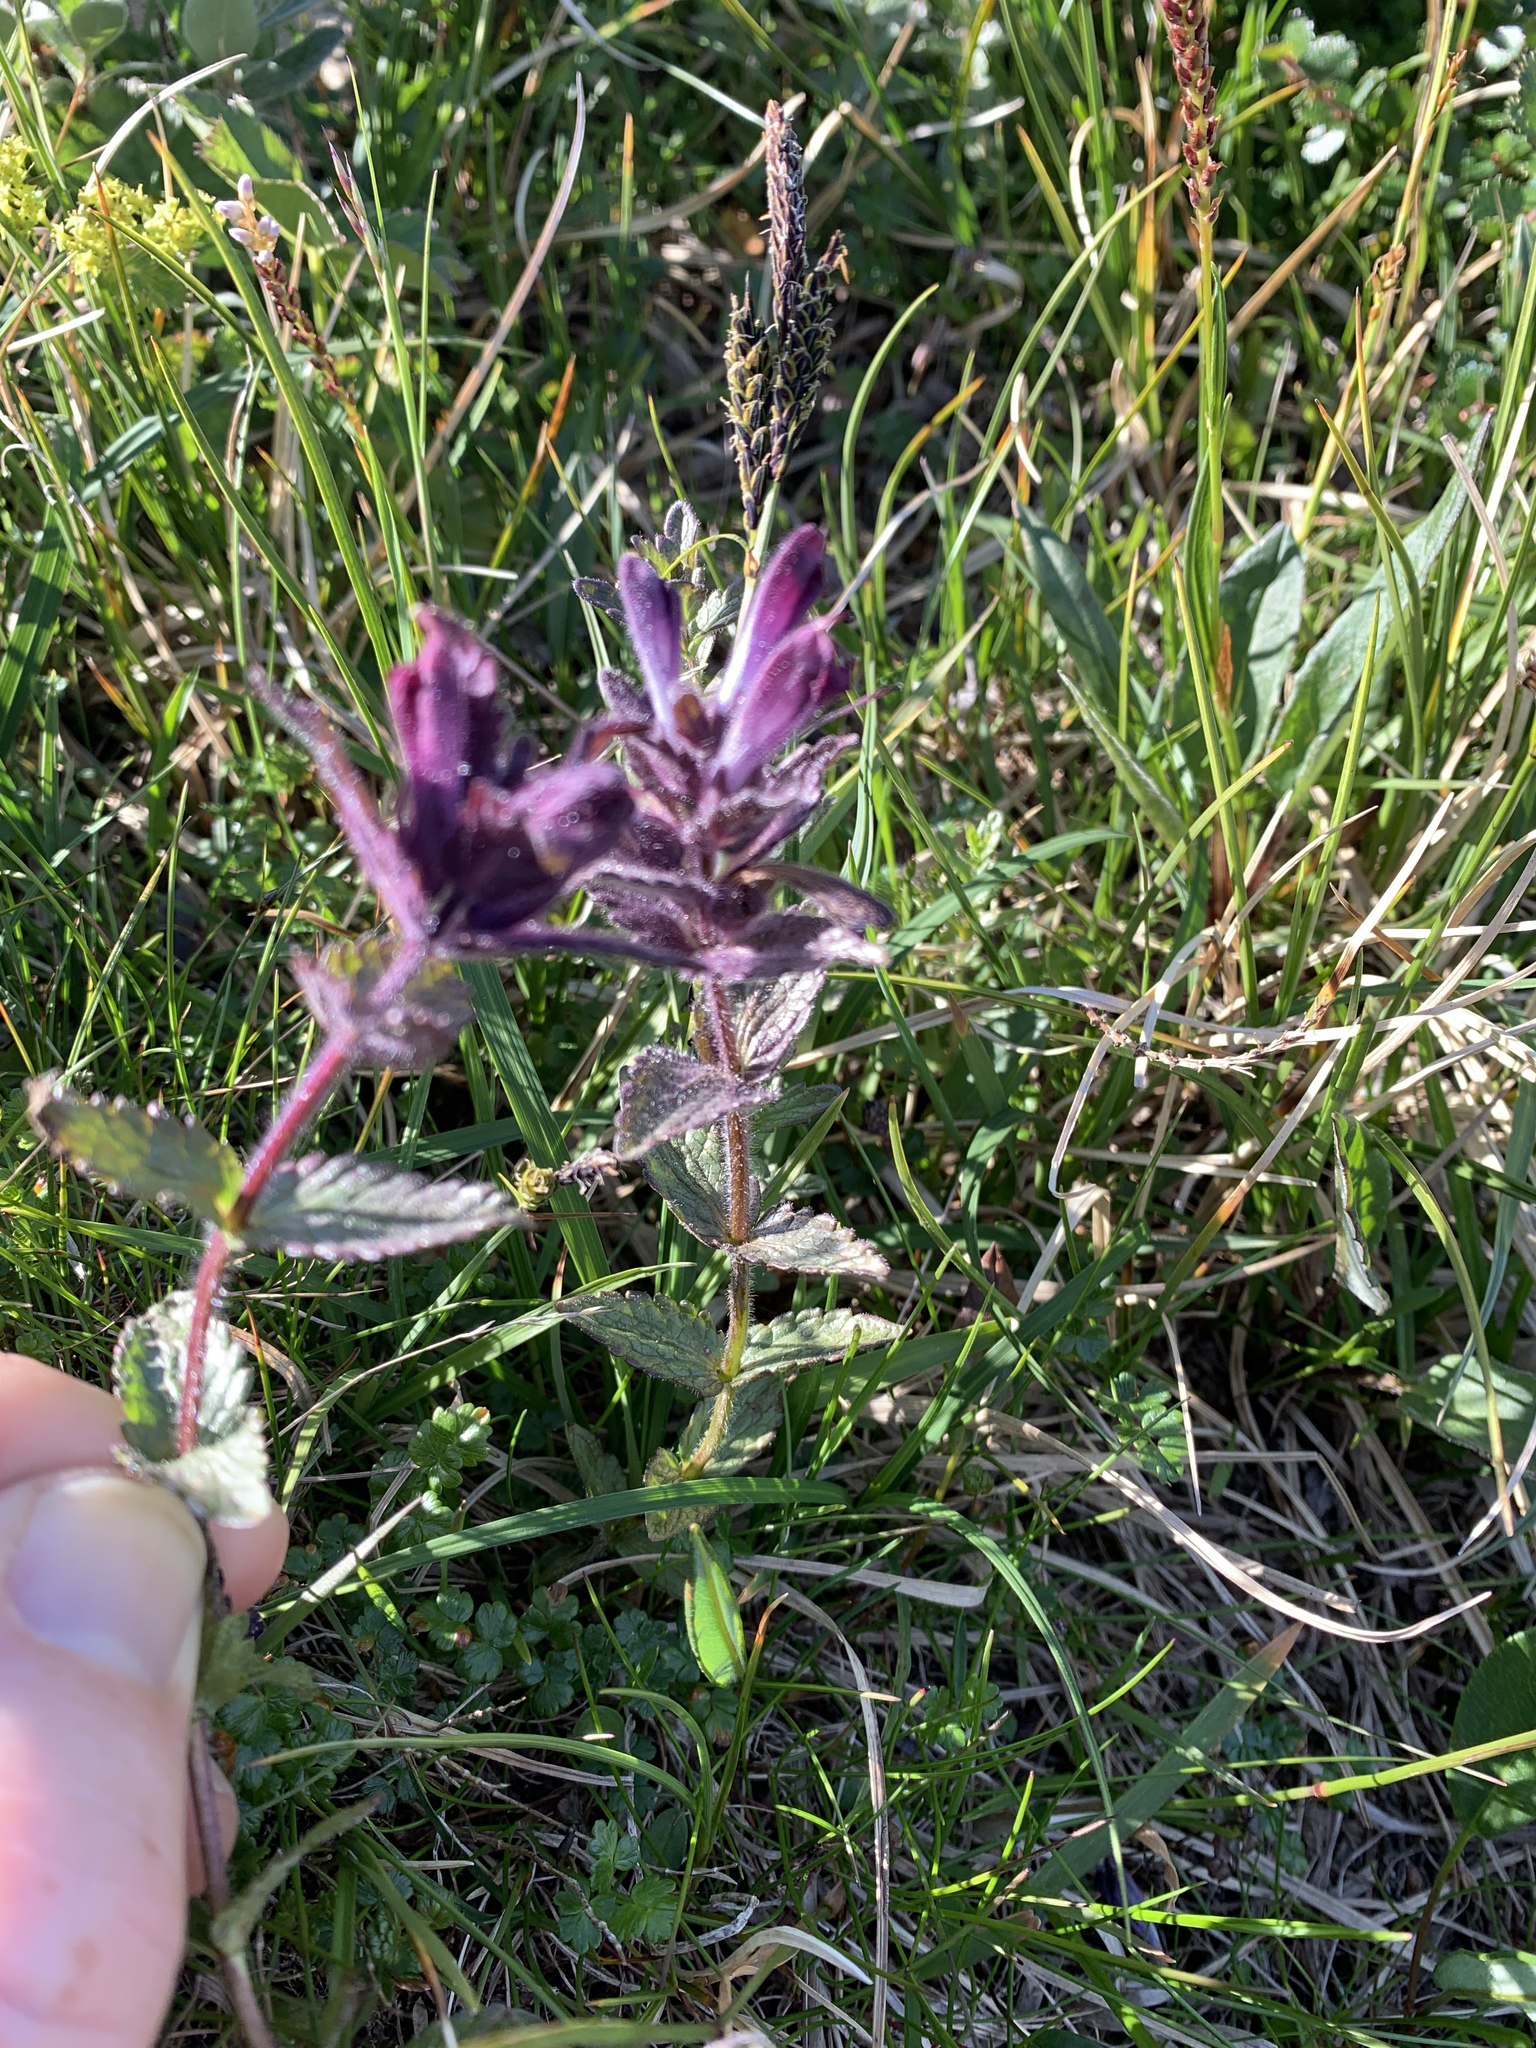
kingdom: Plantae
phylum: Tracheophyta
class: Magnoliopsida
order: Lamiales
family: Orobanchaceae
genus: Bartsia
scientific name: Bartsia alpina
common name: Alpine bartsia
